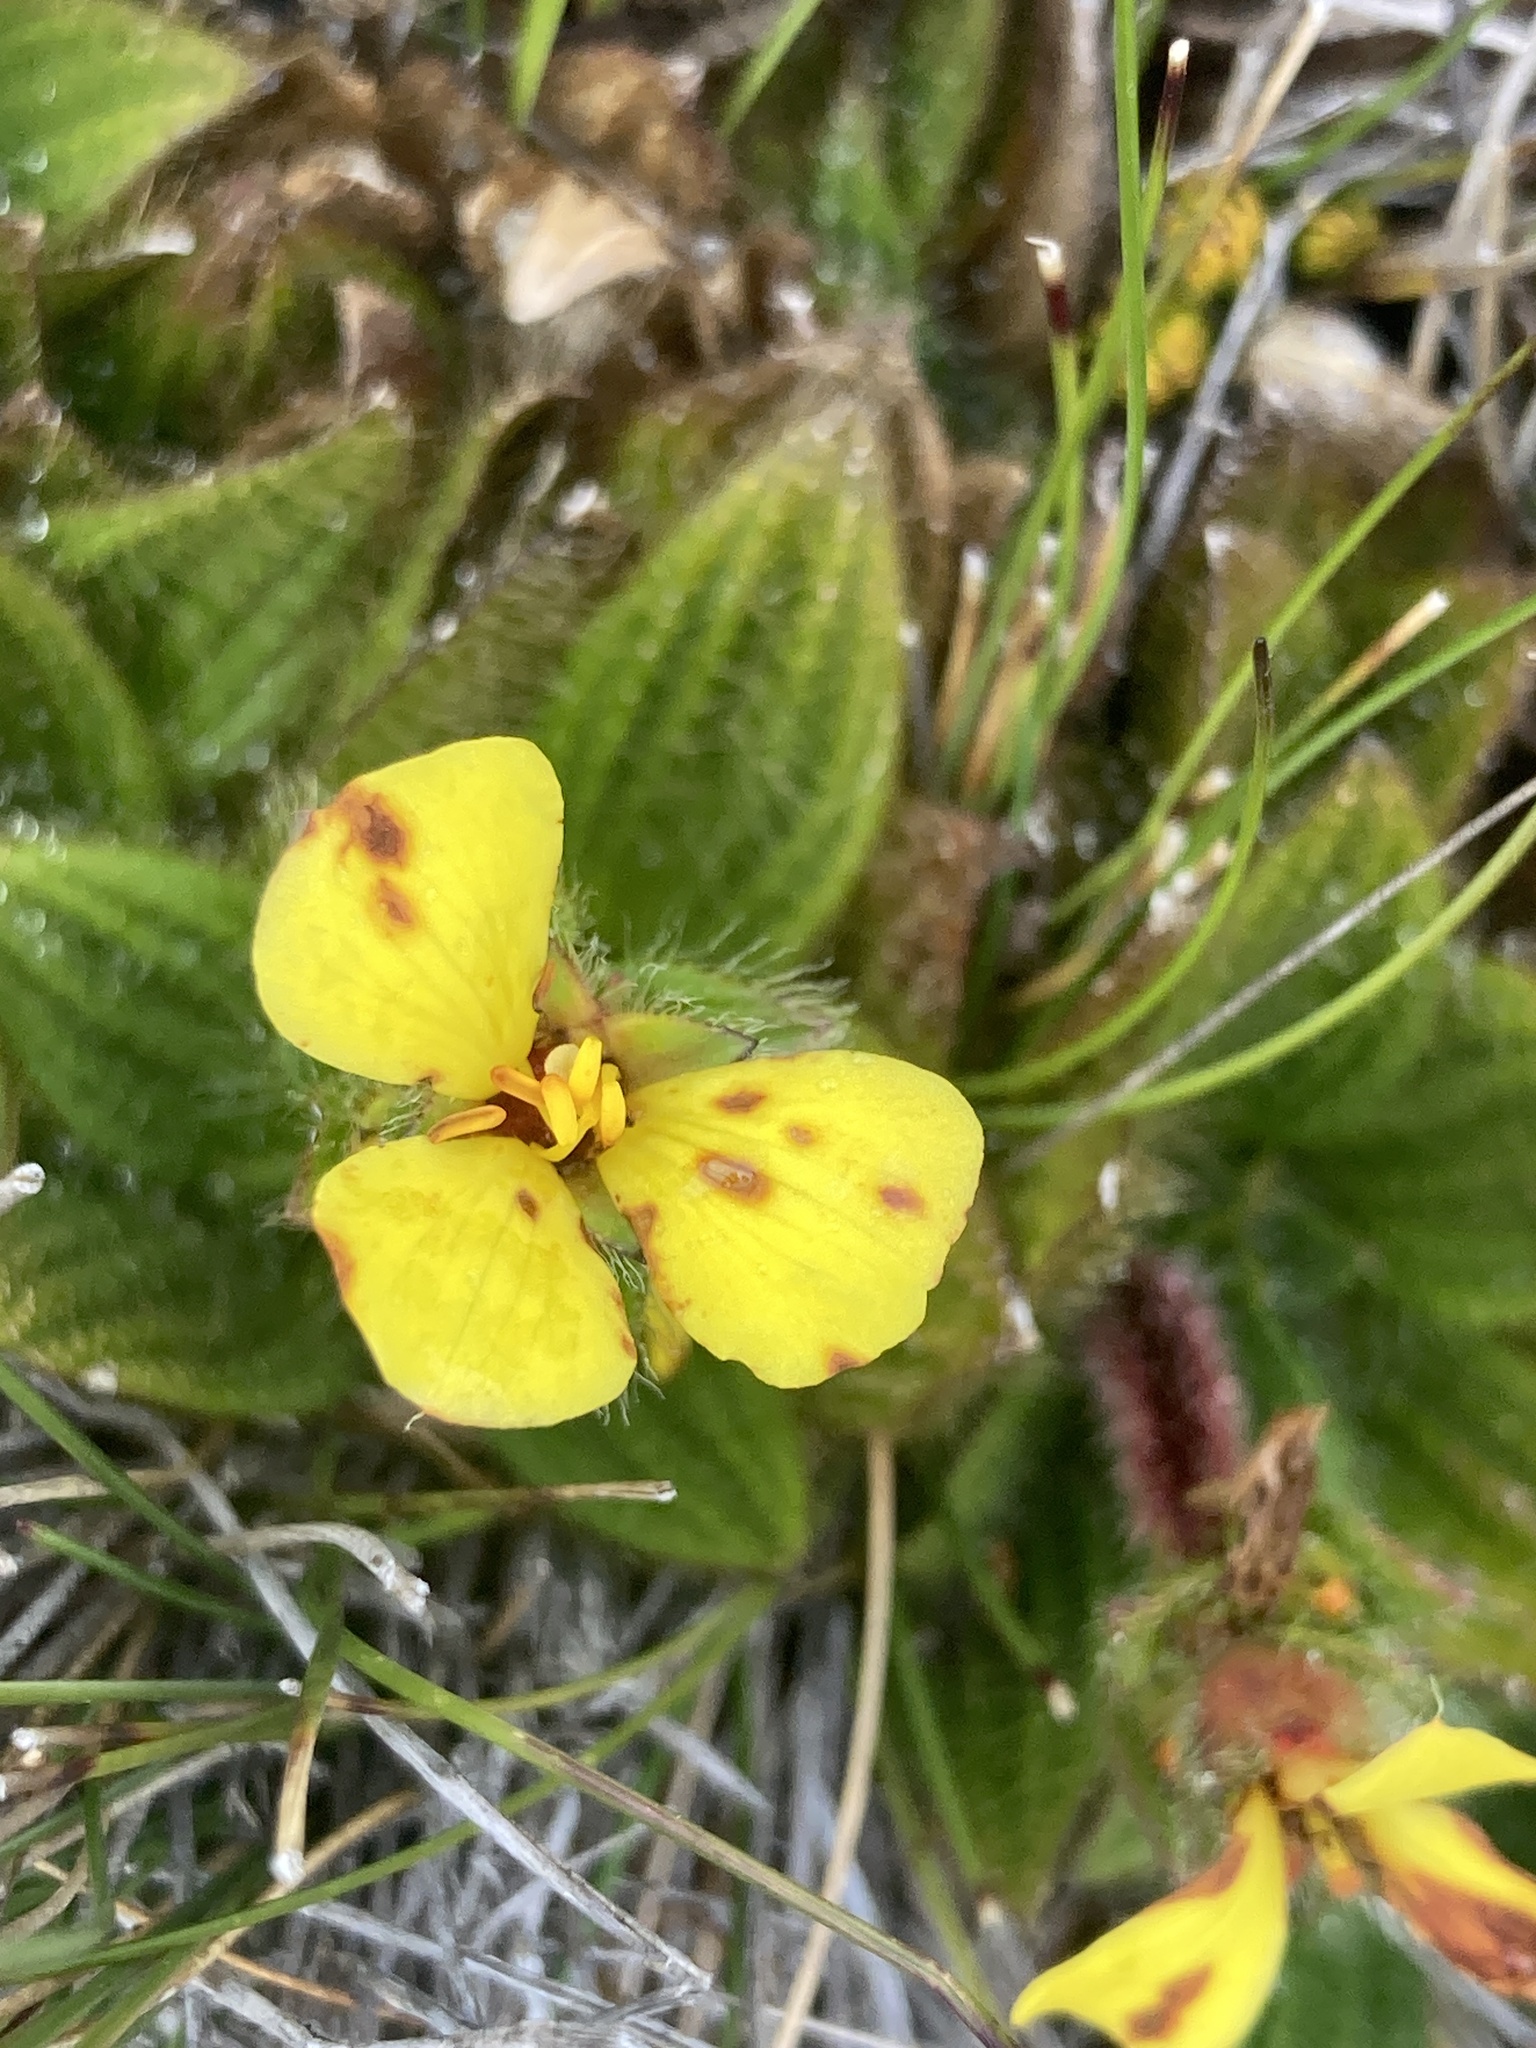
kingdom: Plantae
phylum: Tracheophyta
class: Magnoliopsida
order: Myrtales
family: Melastomataceae
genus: Castratella
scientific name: Castratella piloselloides
